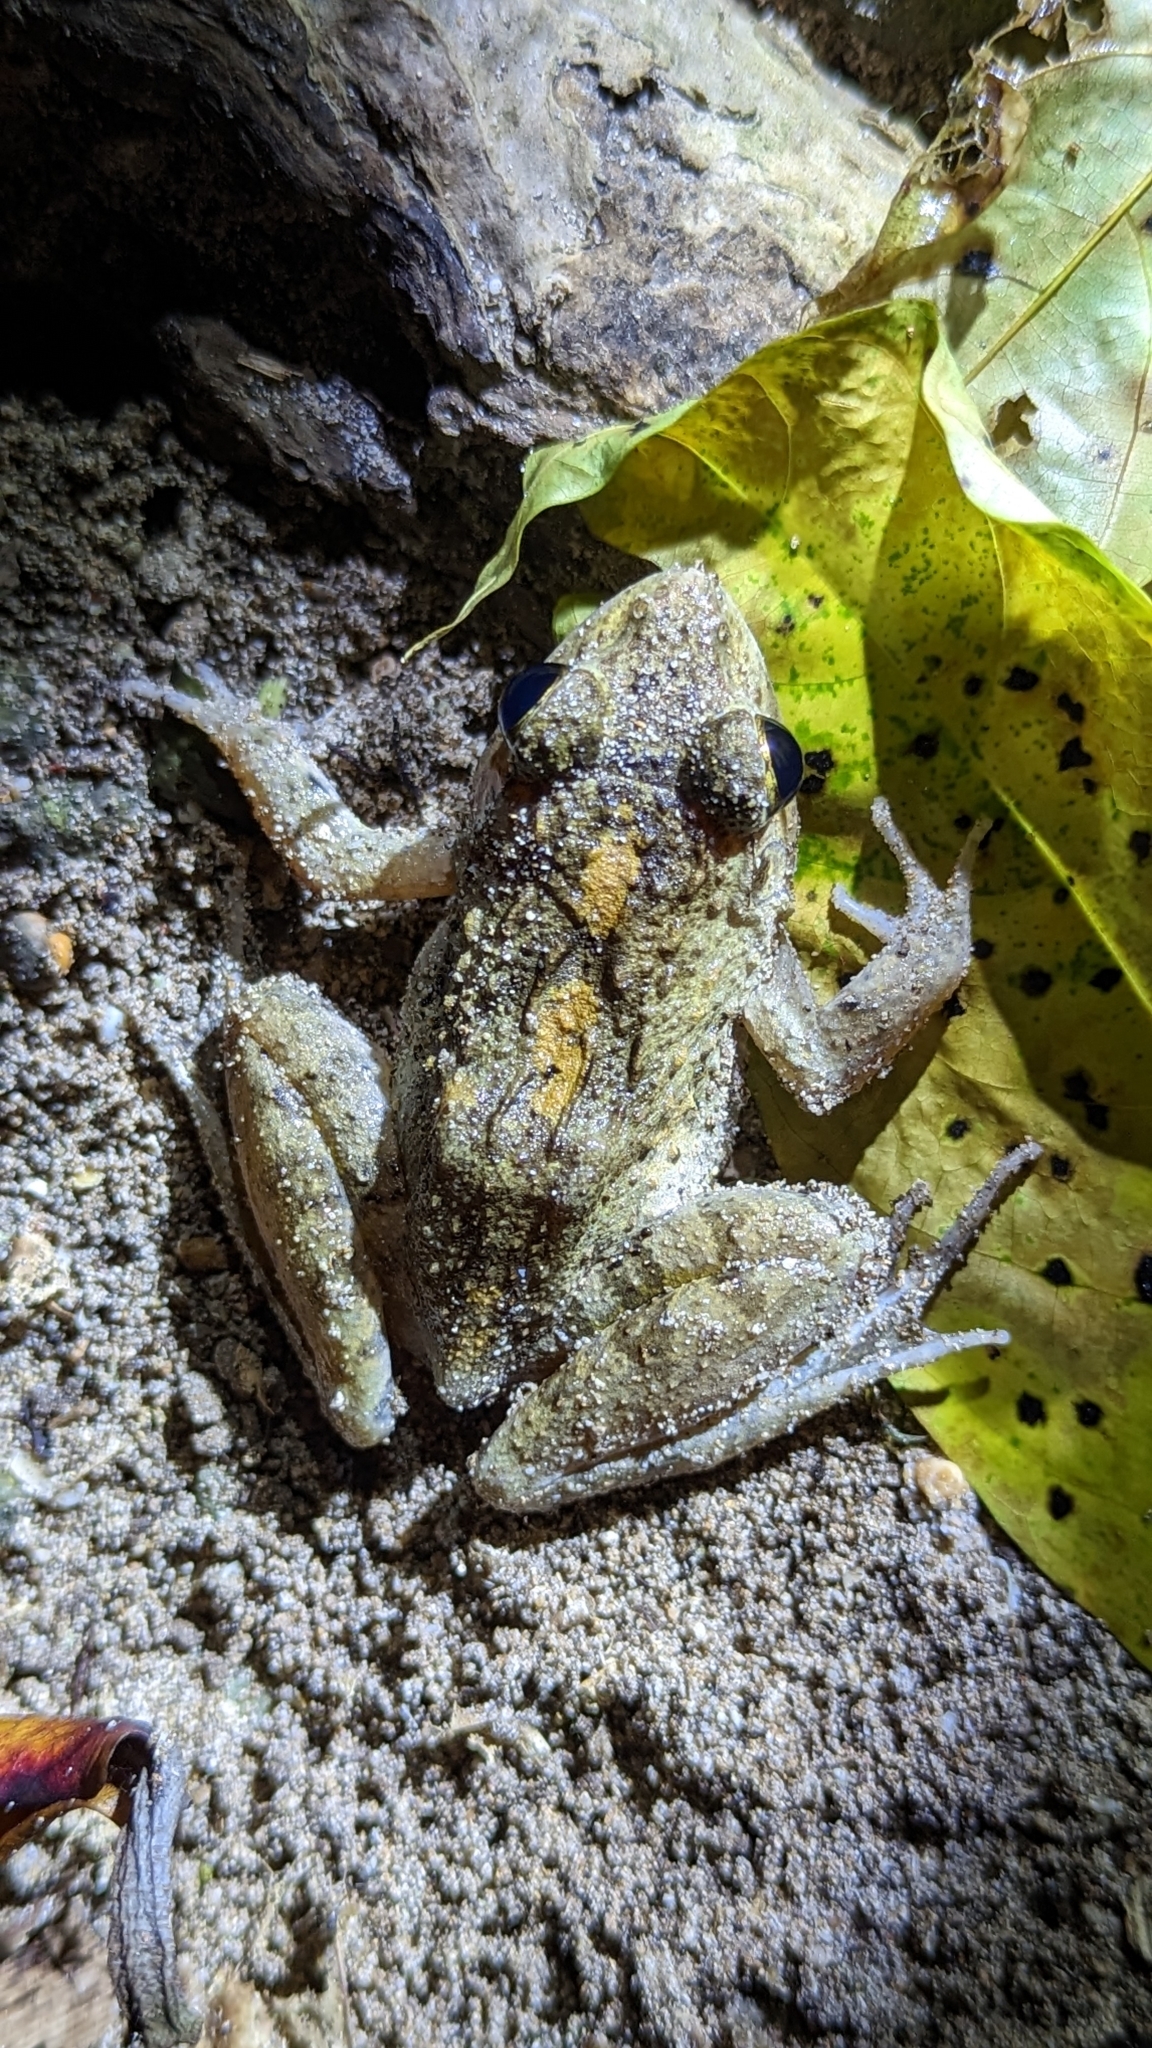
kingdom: Animalia
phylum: Chordata
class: Amphibia
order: Anura
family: Dicroglossidae
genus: Minervarya
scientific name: Minervarya andamanensis
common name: Andaman wart frog
